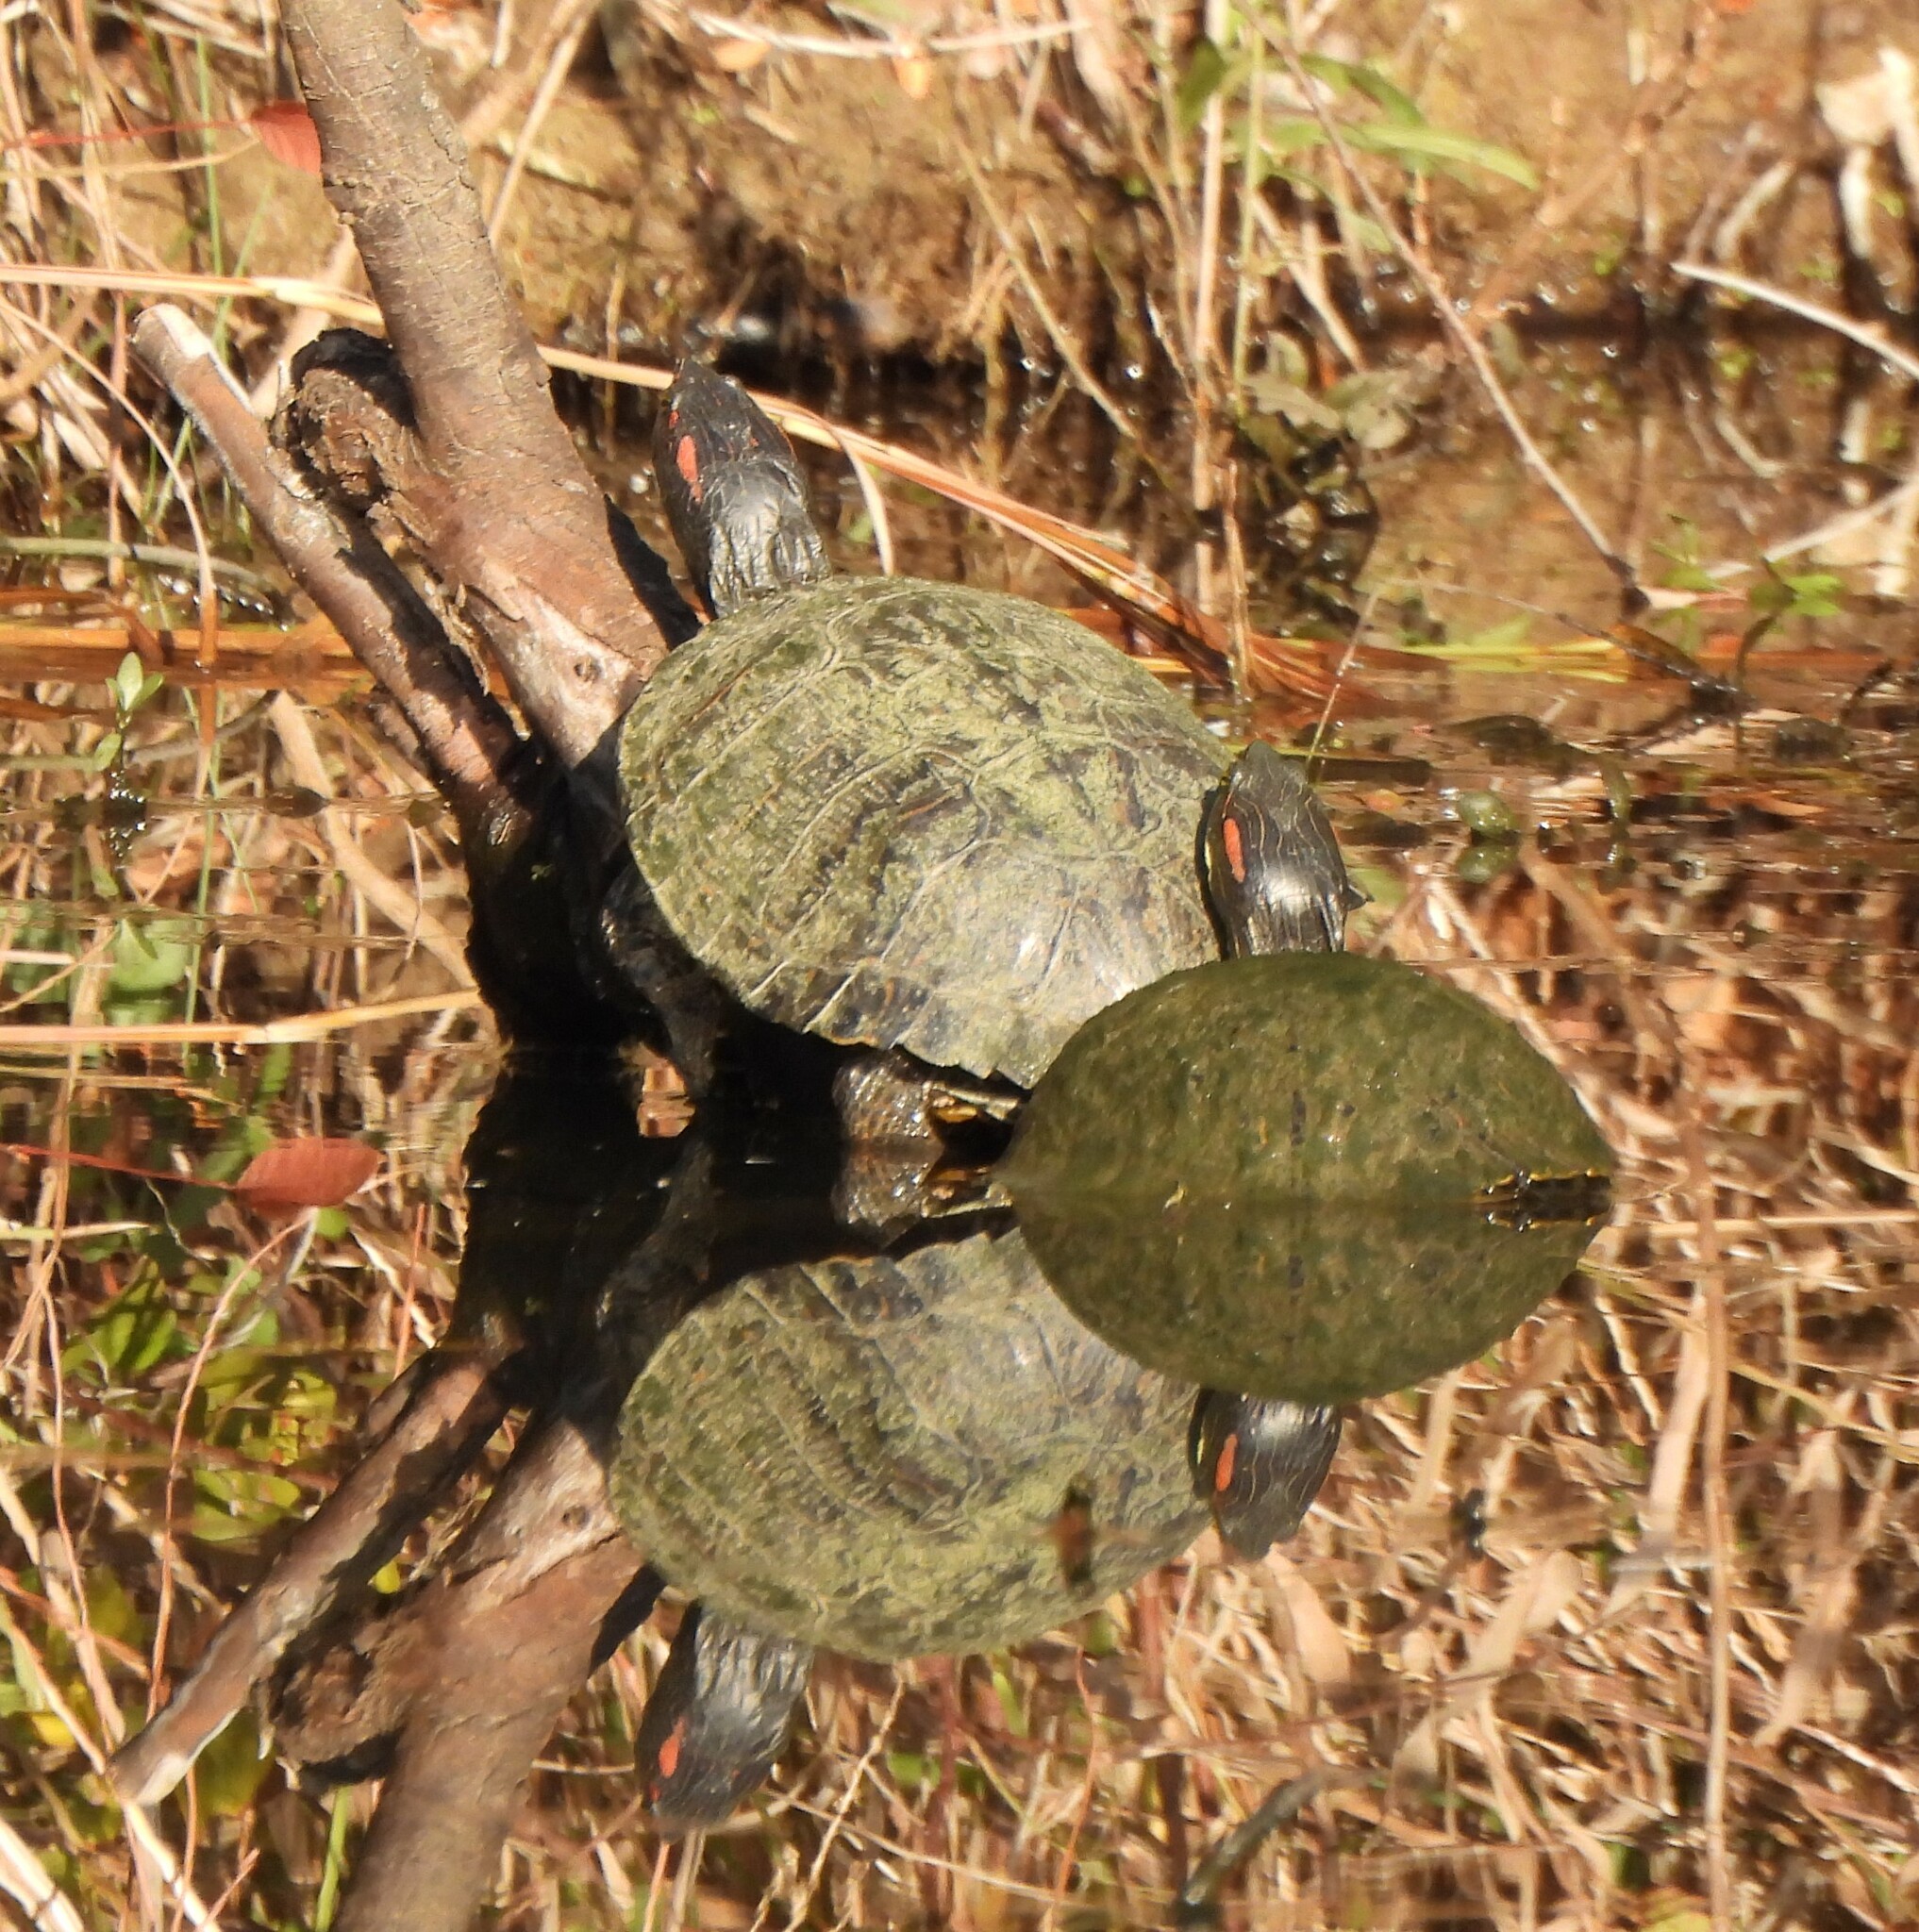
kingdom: Animalia
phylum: Chordata
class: Testudines
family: Emydidae
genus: Trachemys
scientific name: Trachemys scripta
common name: Slider
